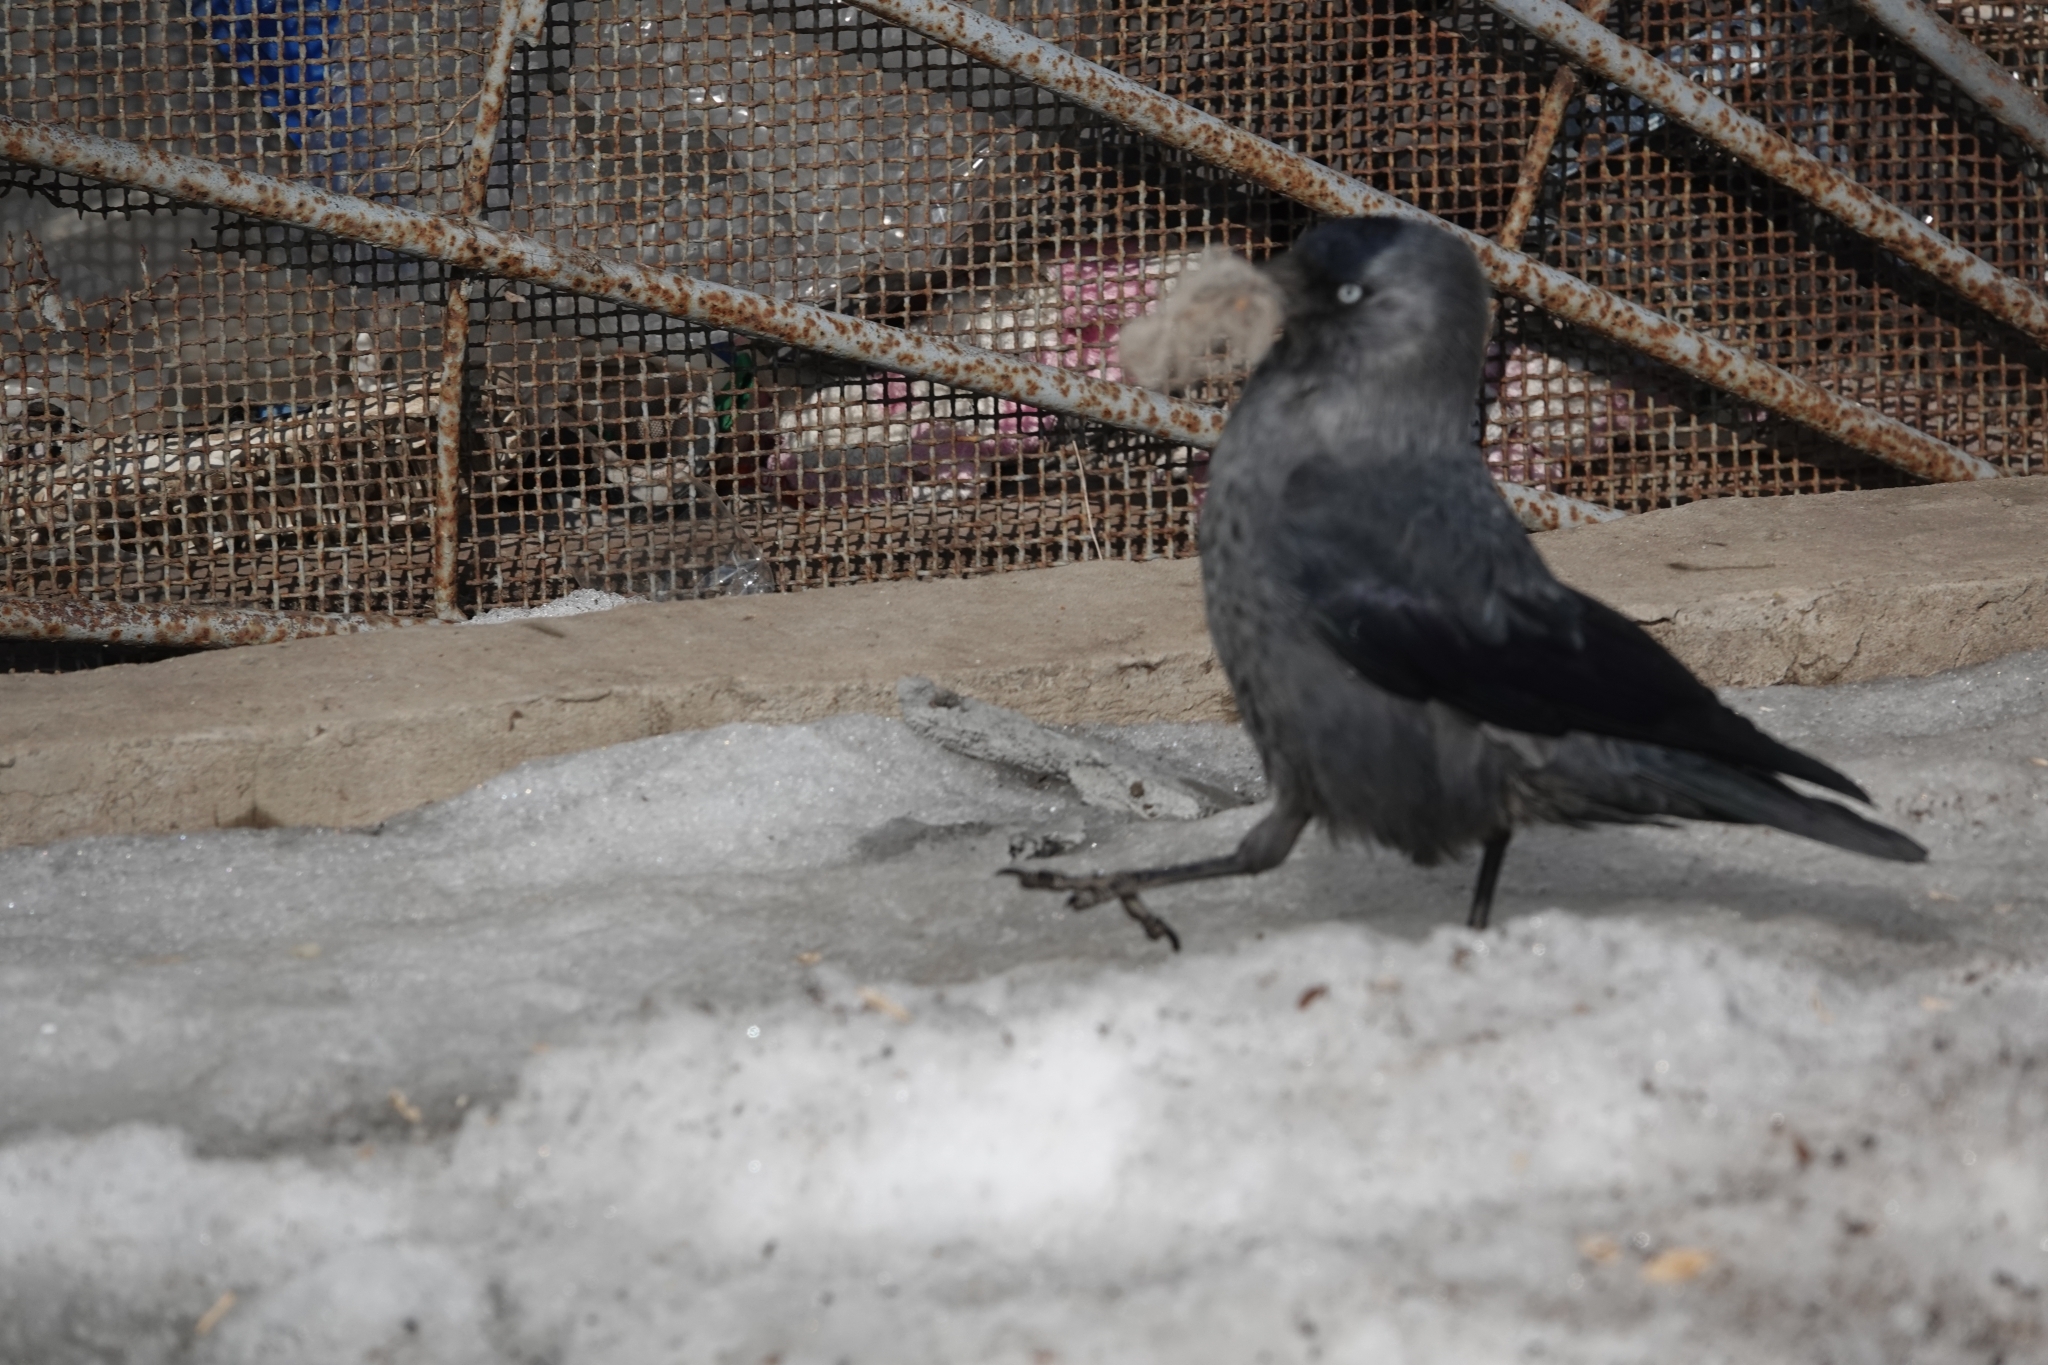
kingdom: Animalia
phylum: Chordata
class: Aves
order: Passeriformes
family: Corvidae
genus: Coloeus
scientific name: Coloeus monedula
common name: Western jackdaw
